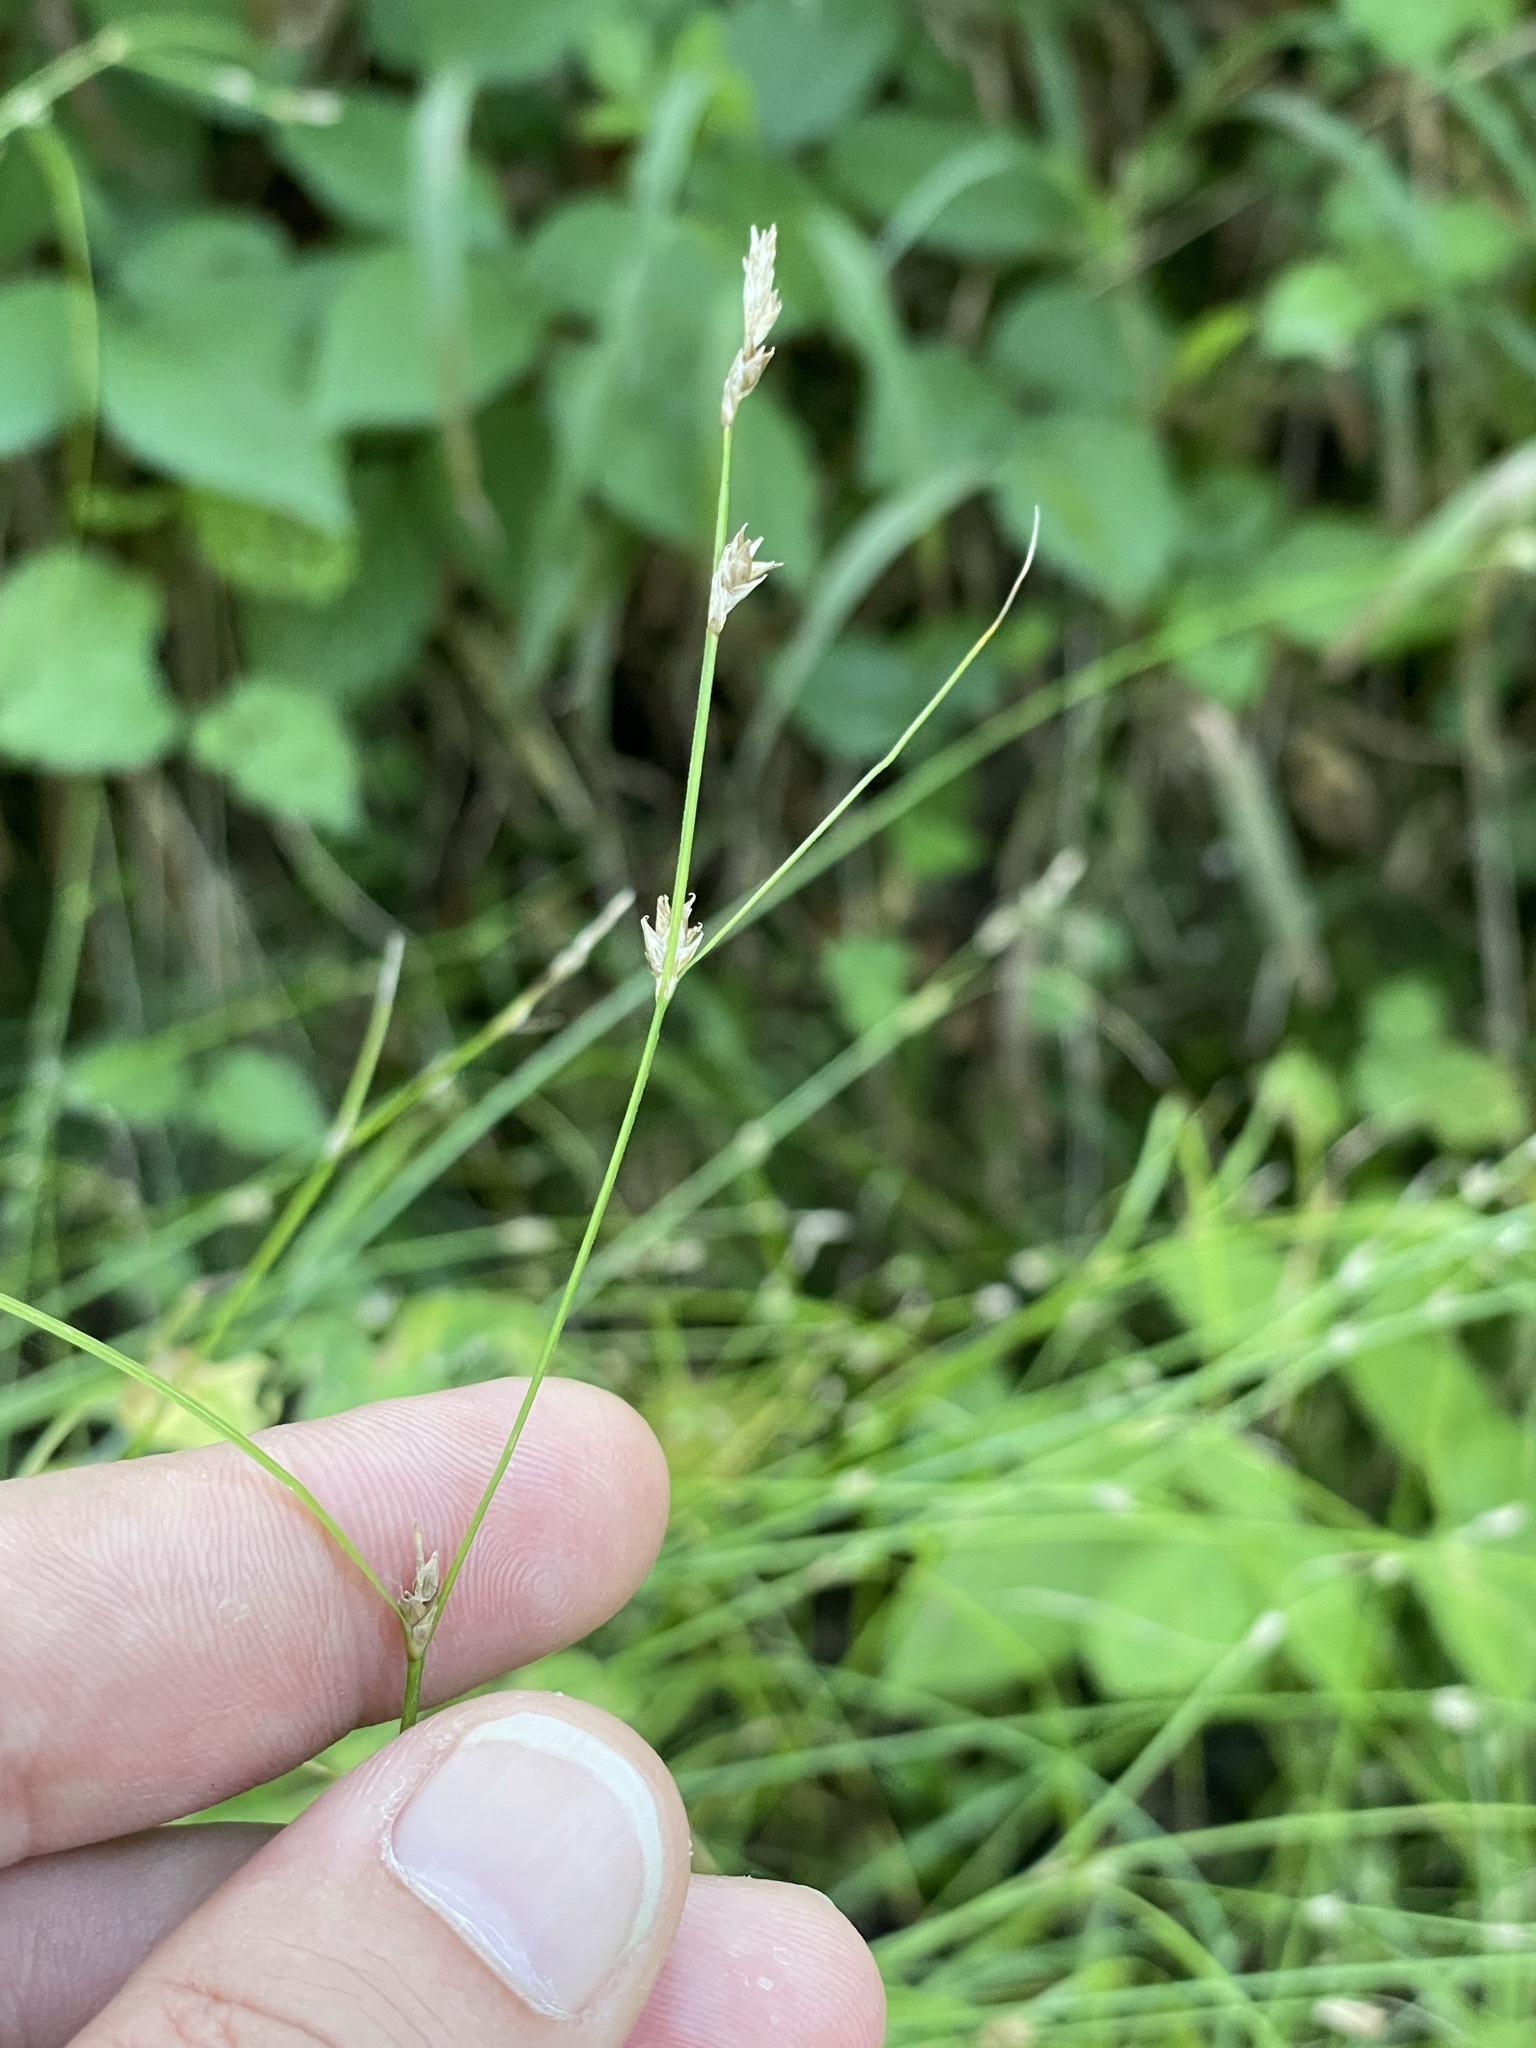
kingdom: Plantae
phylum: Tracheophyta
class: Liliopsida
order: Poales
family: Cyperaceae
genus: Carex
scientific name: Carex remota
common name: Remote sedge
